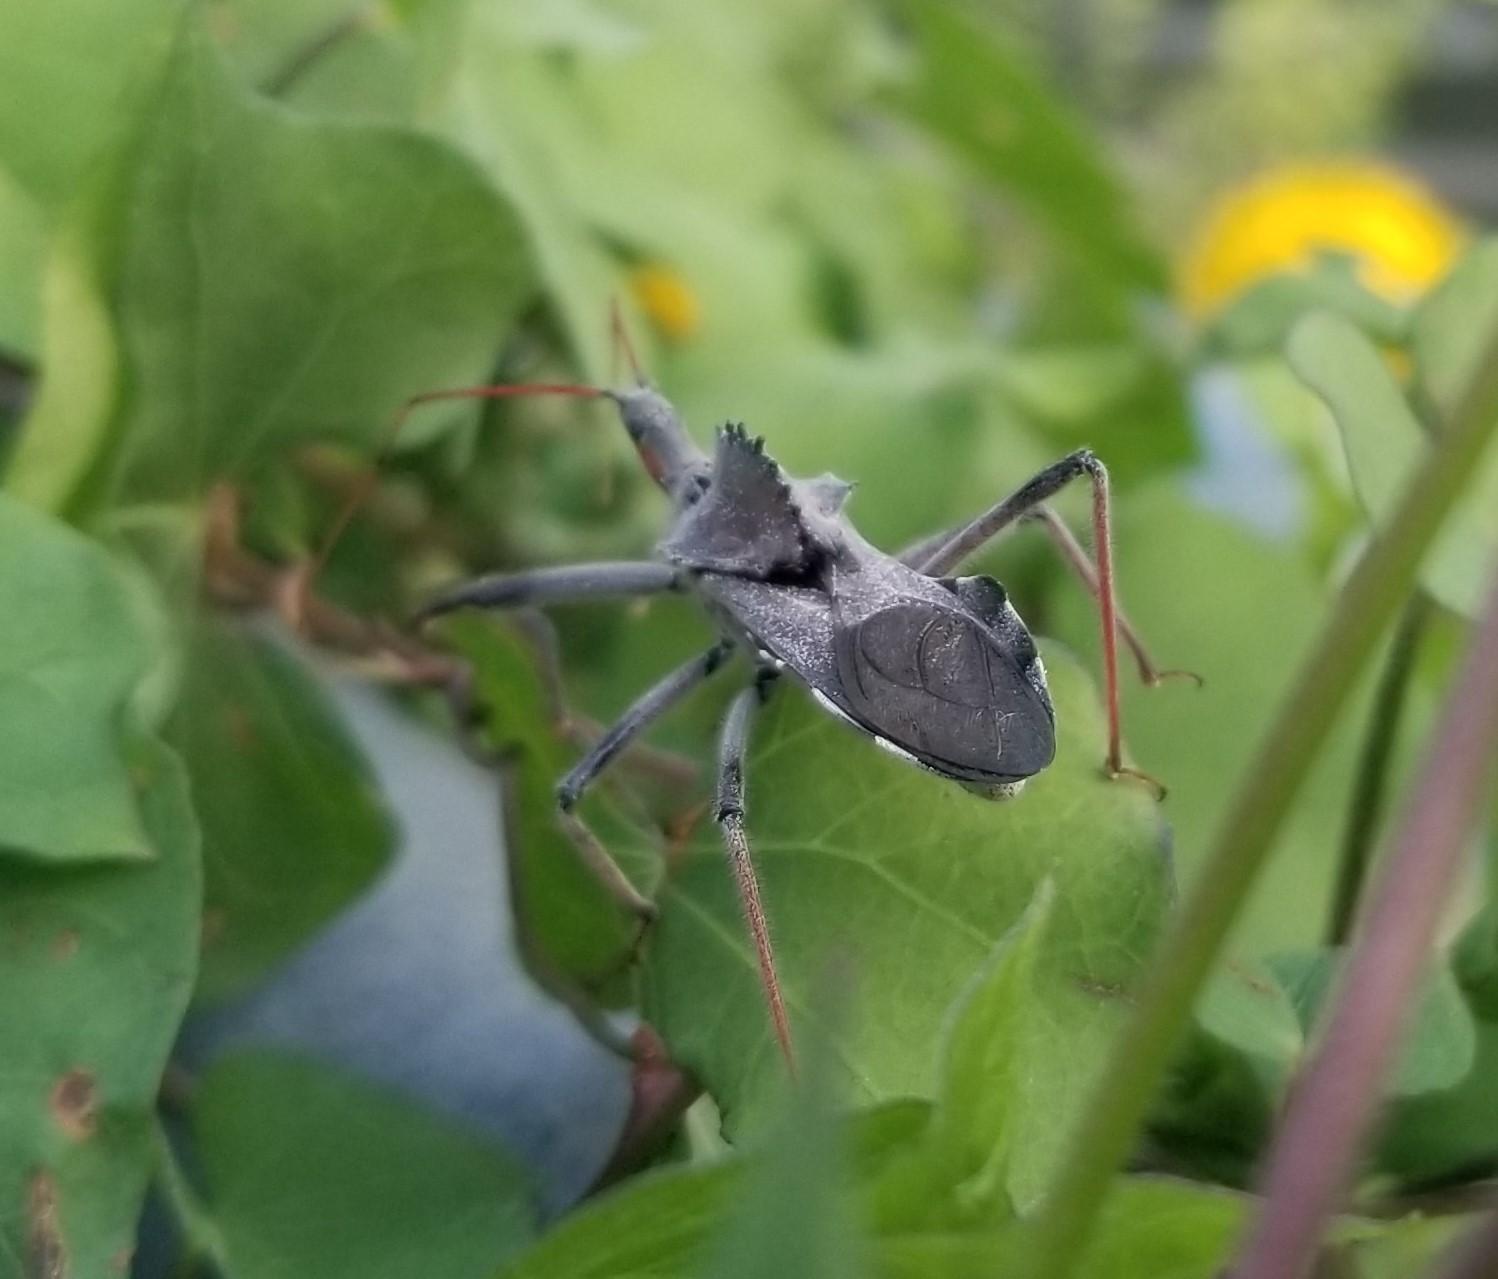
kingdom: Animalia
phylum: Arthropoda
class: Insecta
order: Hemiptera
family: Reduviidae
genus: Arilus
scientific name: Arilus cristatus
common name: North american wheel bug
